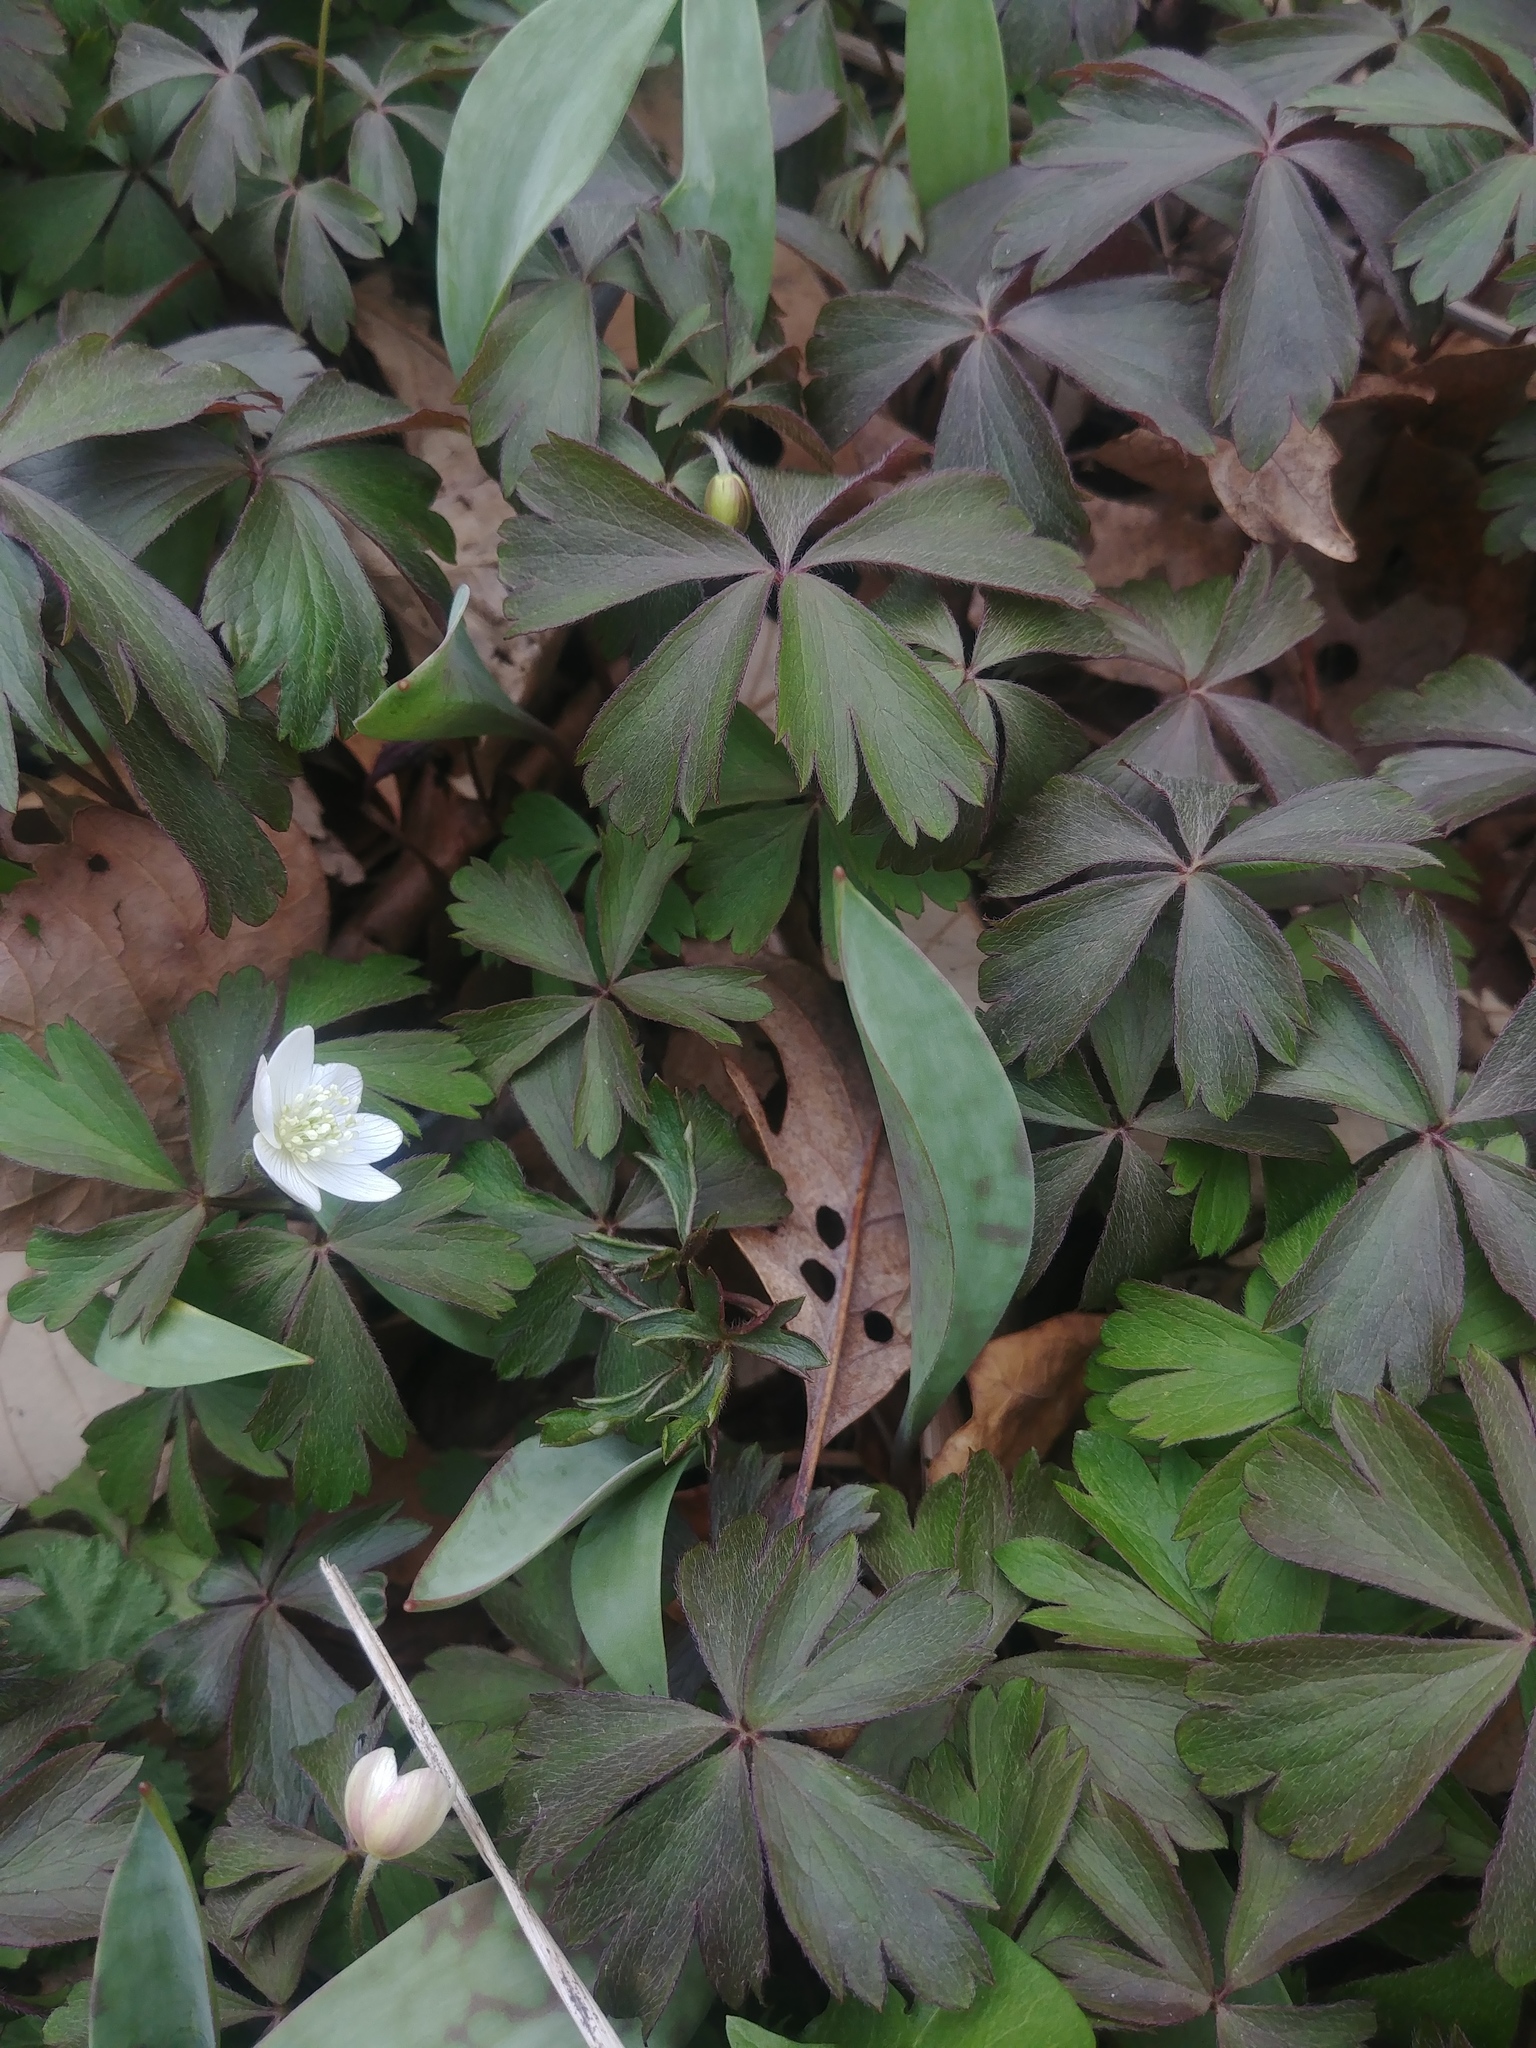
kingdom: Plantae
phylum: Tracheophyta
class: Magnoliopsida
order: Ranunculales
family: Ranunculaceae
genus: Anemone
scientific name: Anemone quinquefolia
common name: Wood anemone
